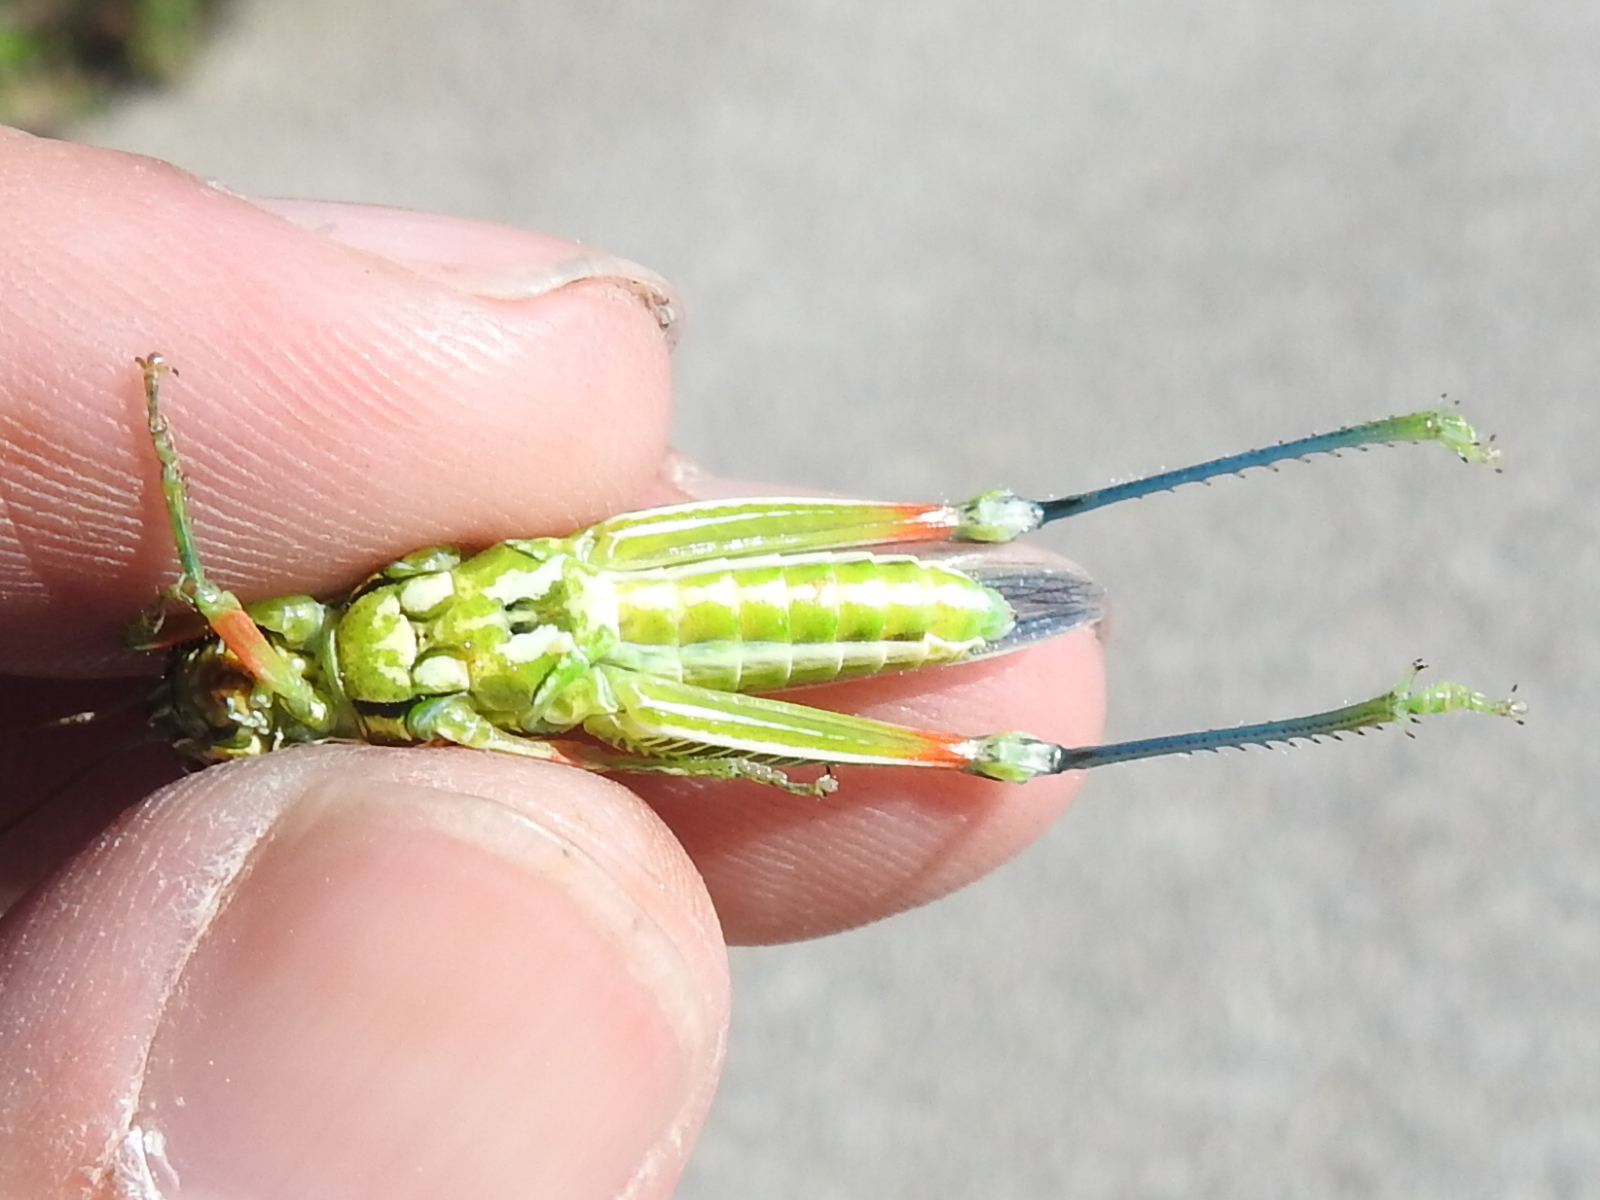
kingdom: Animalia
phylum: Arthropoda
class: Insecta
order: Orthoptera
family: Acrididae
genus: Hesperotettix
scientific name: Hesperotettix viridis
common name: Meadow purple-striped grasshopper
